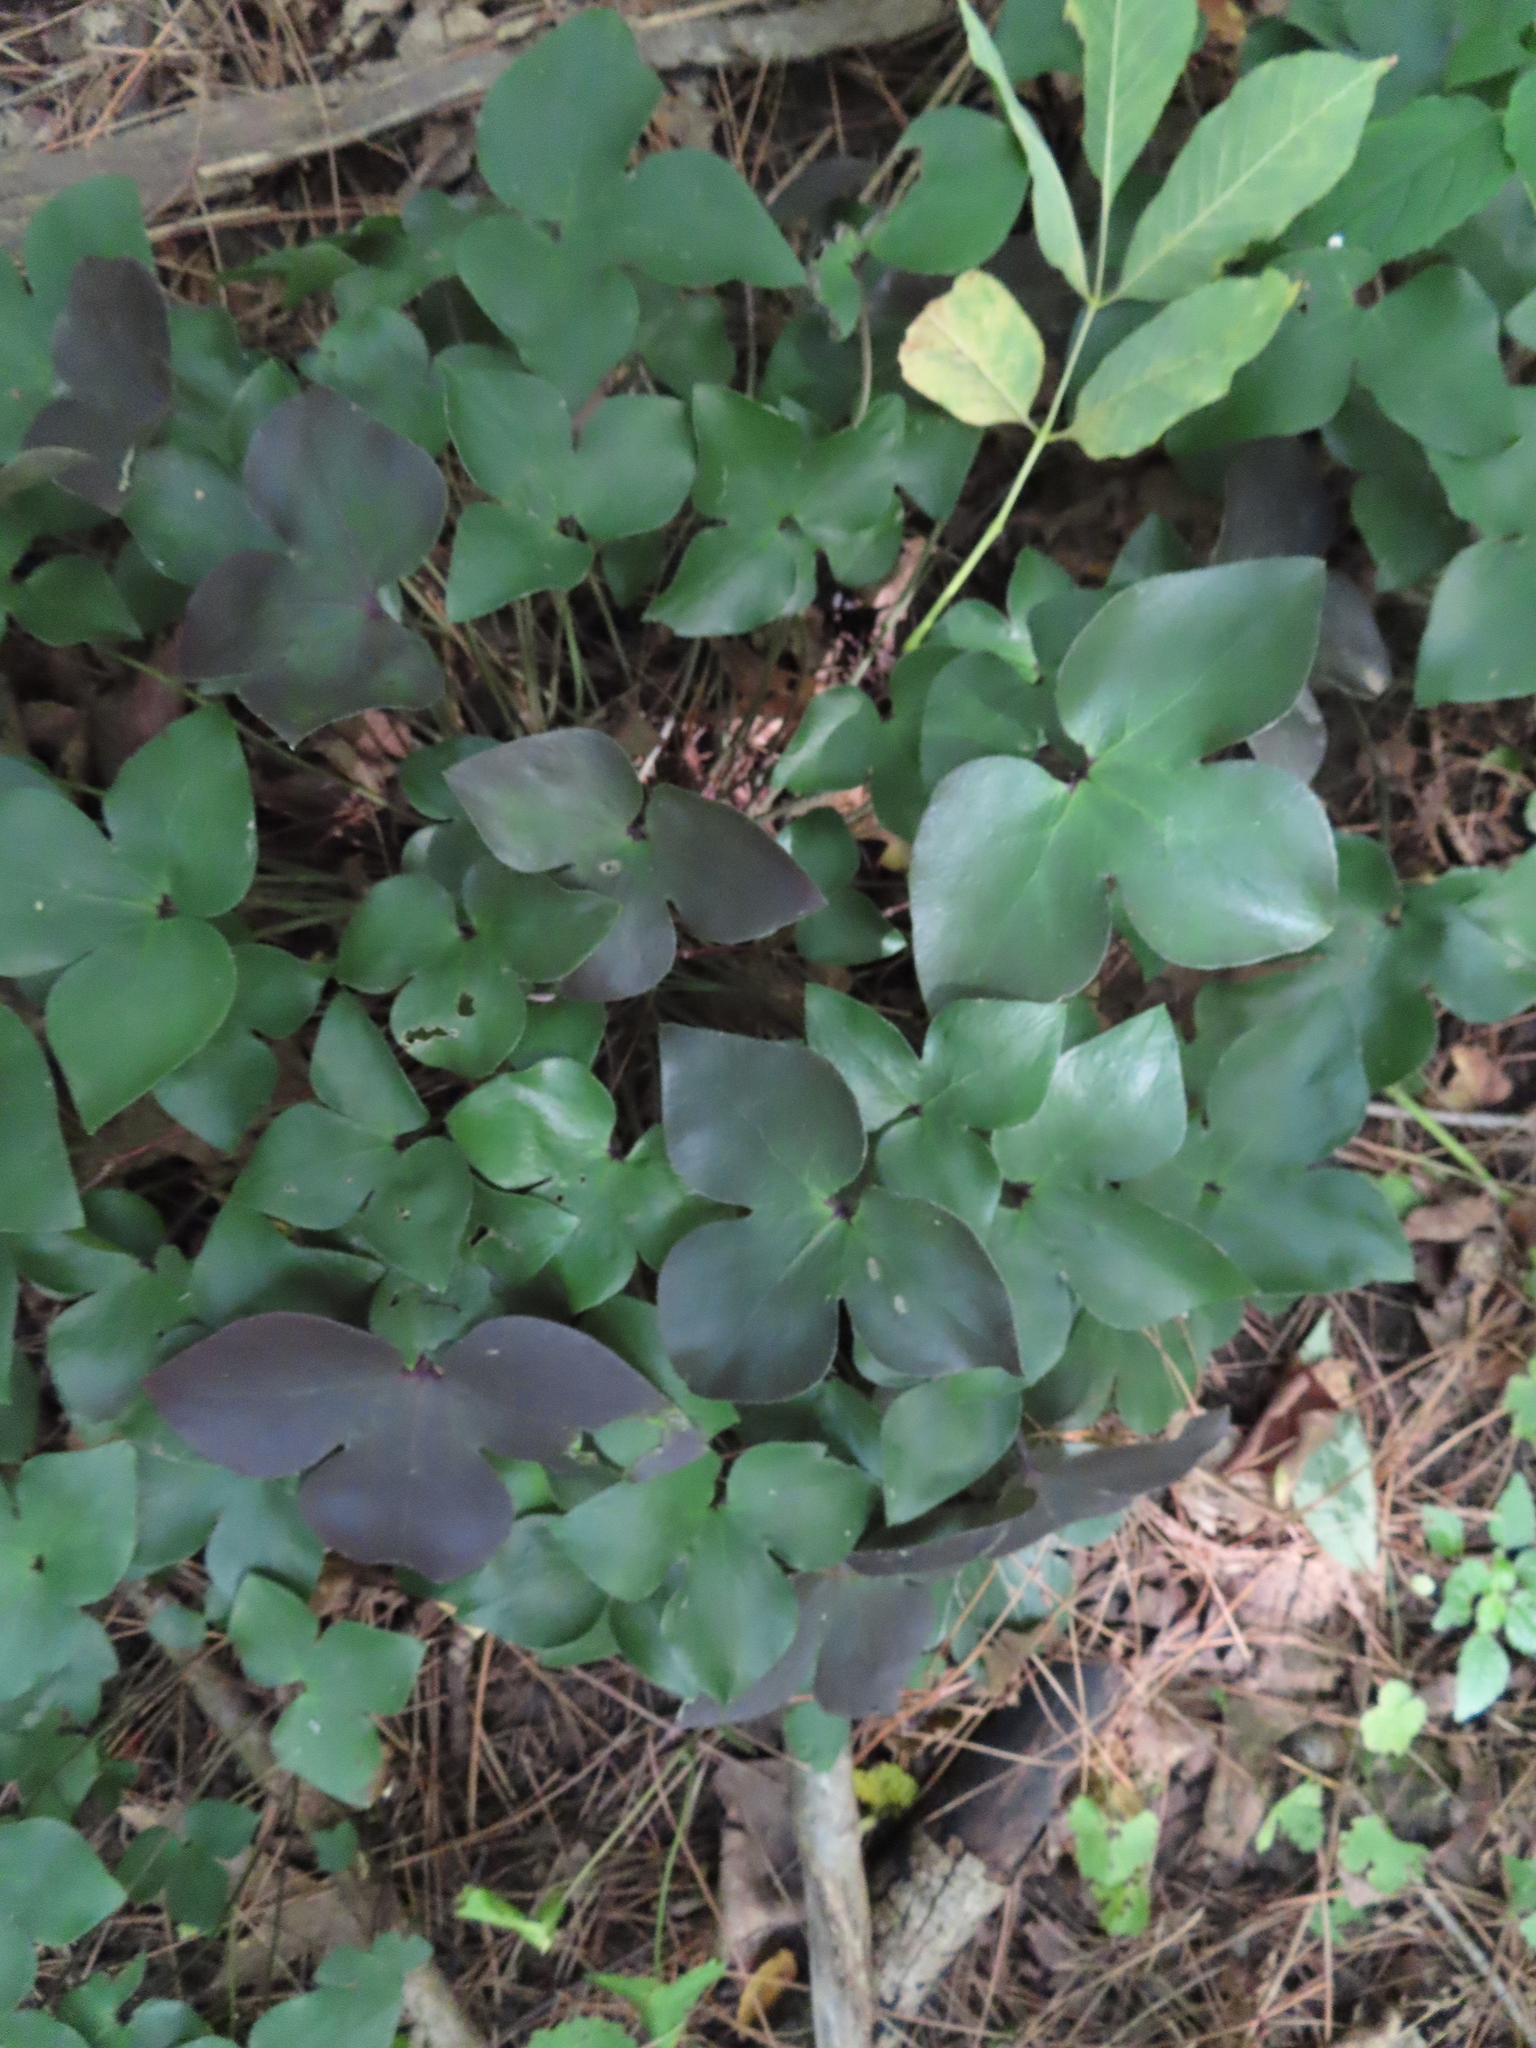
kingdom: Plantae
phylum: Tracheophyta
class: Magnoliopsida
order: Ranunculales
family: Ranunculaceae
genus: Hepatica
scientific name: Hepatica acutiloba
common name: Sharp-lobed hepatica
